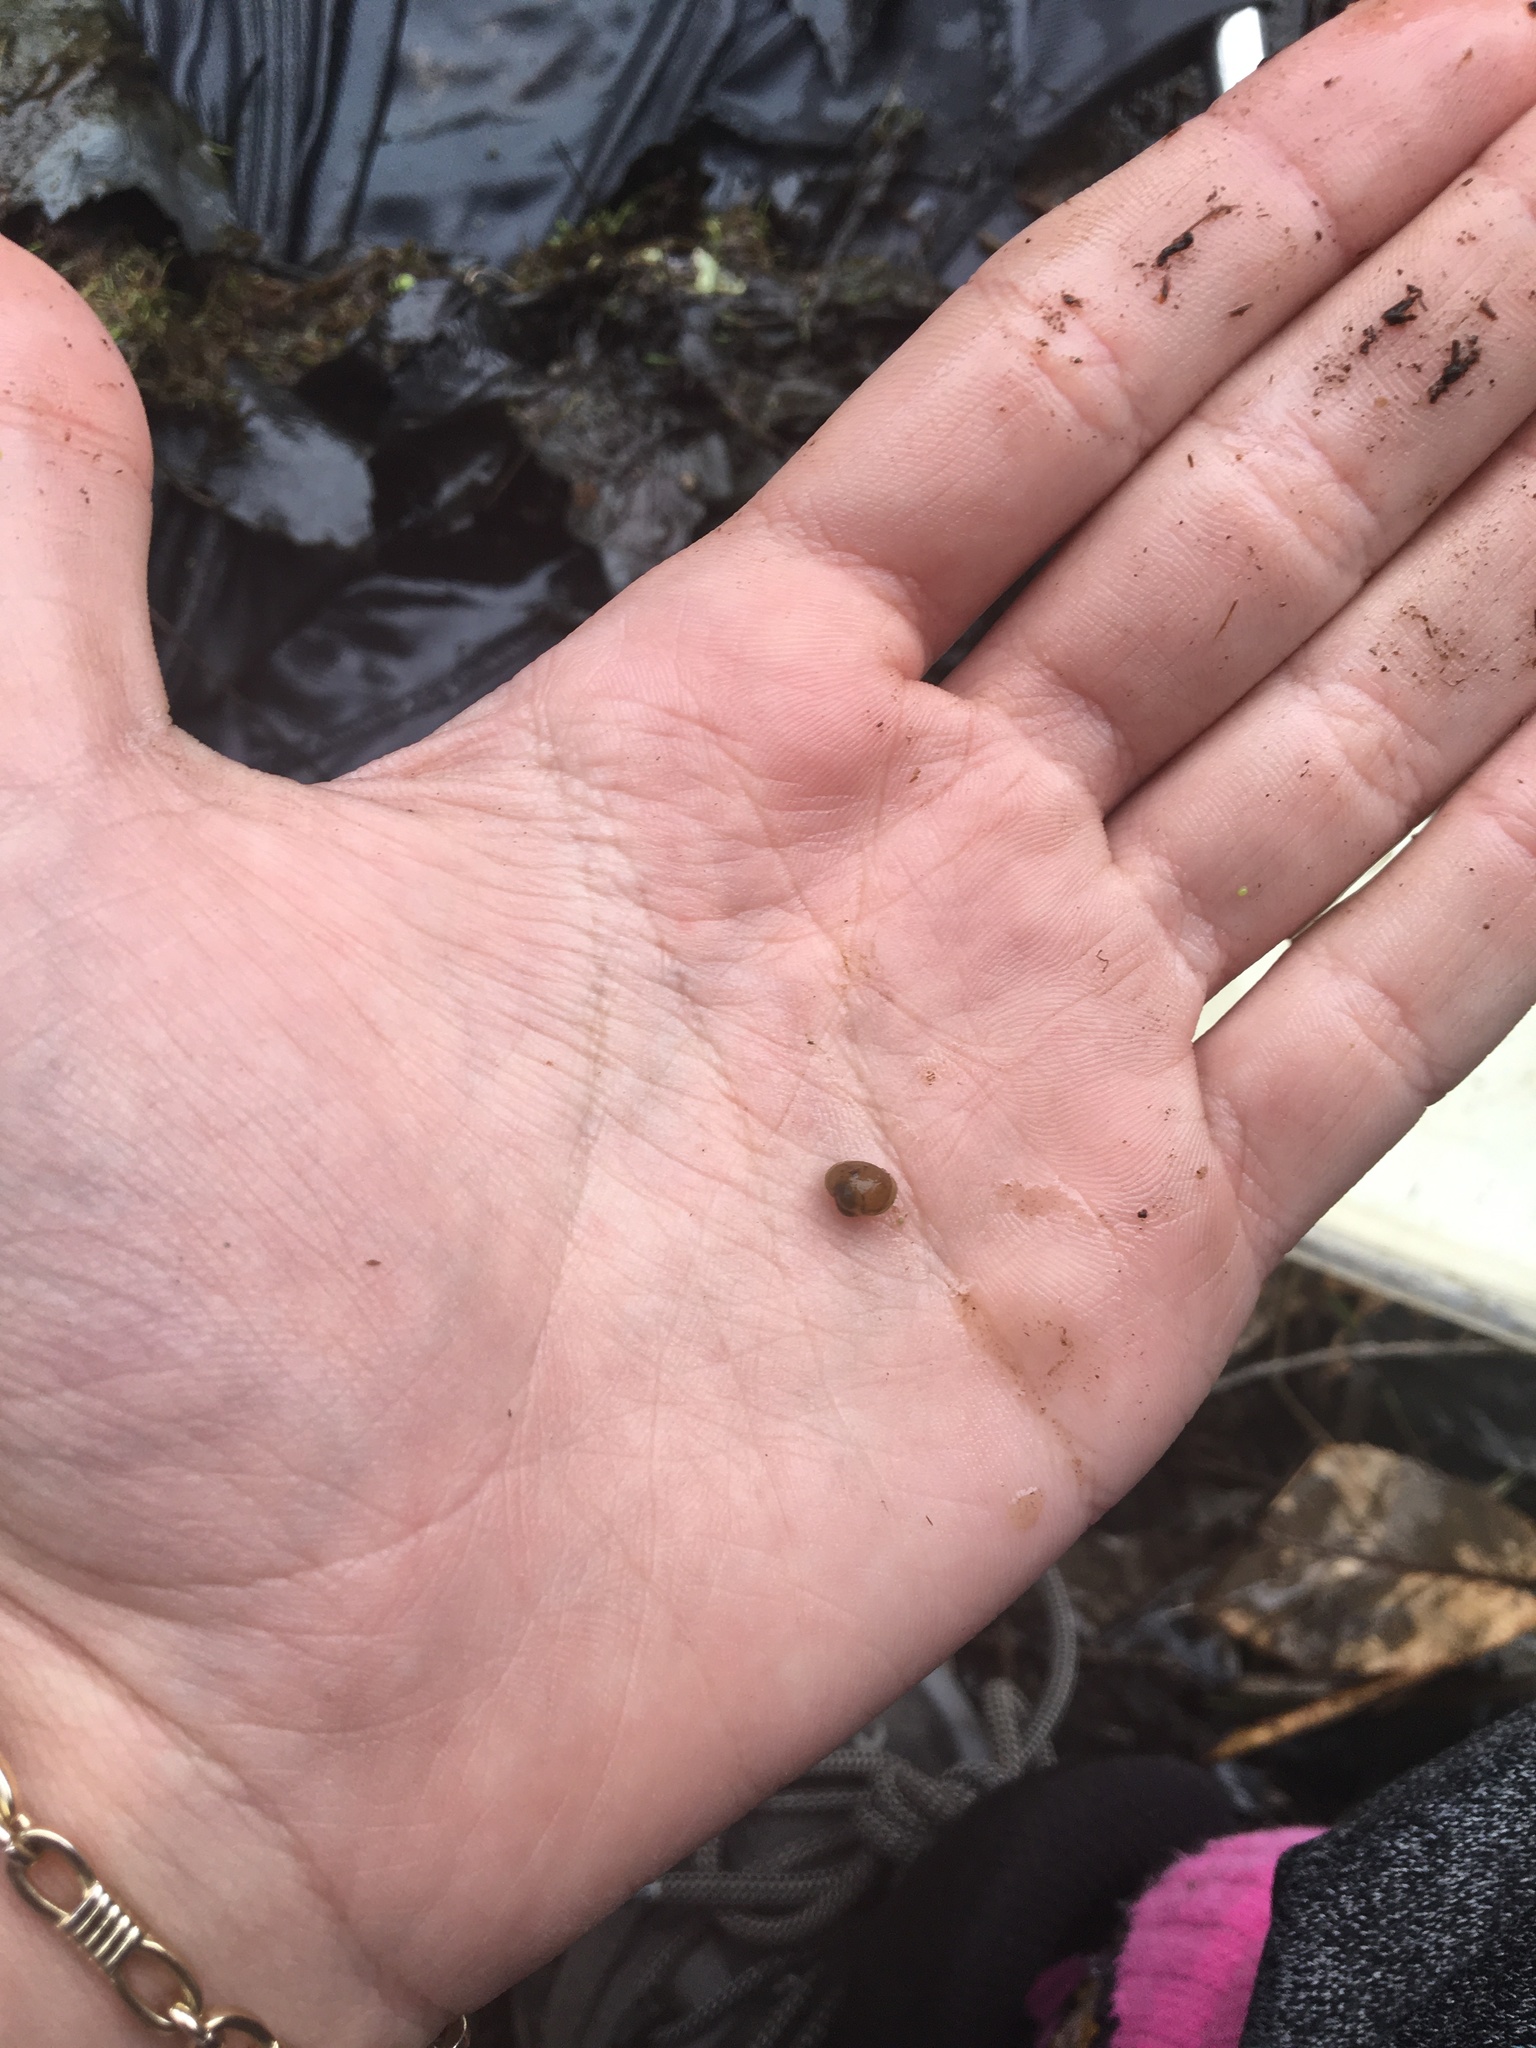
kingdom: Animalia
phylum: Mollusca
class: Bivalvia
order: Sphaeriida
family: Sphaeriidae
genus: Musculium
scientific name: Musculium
